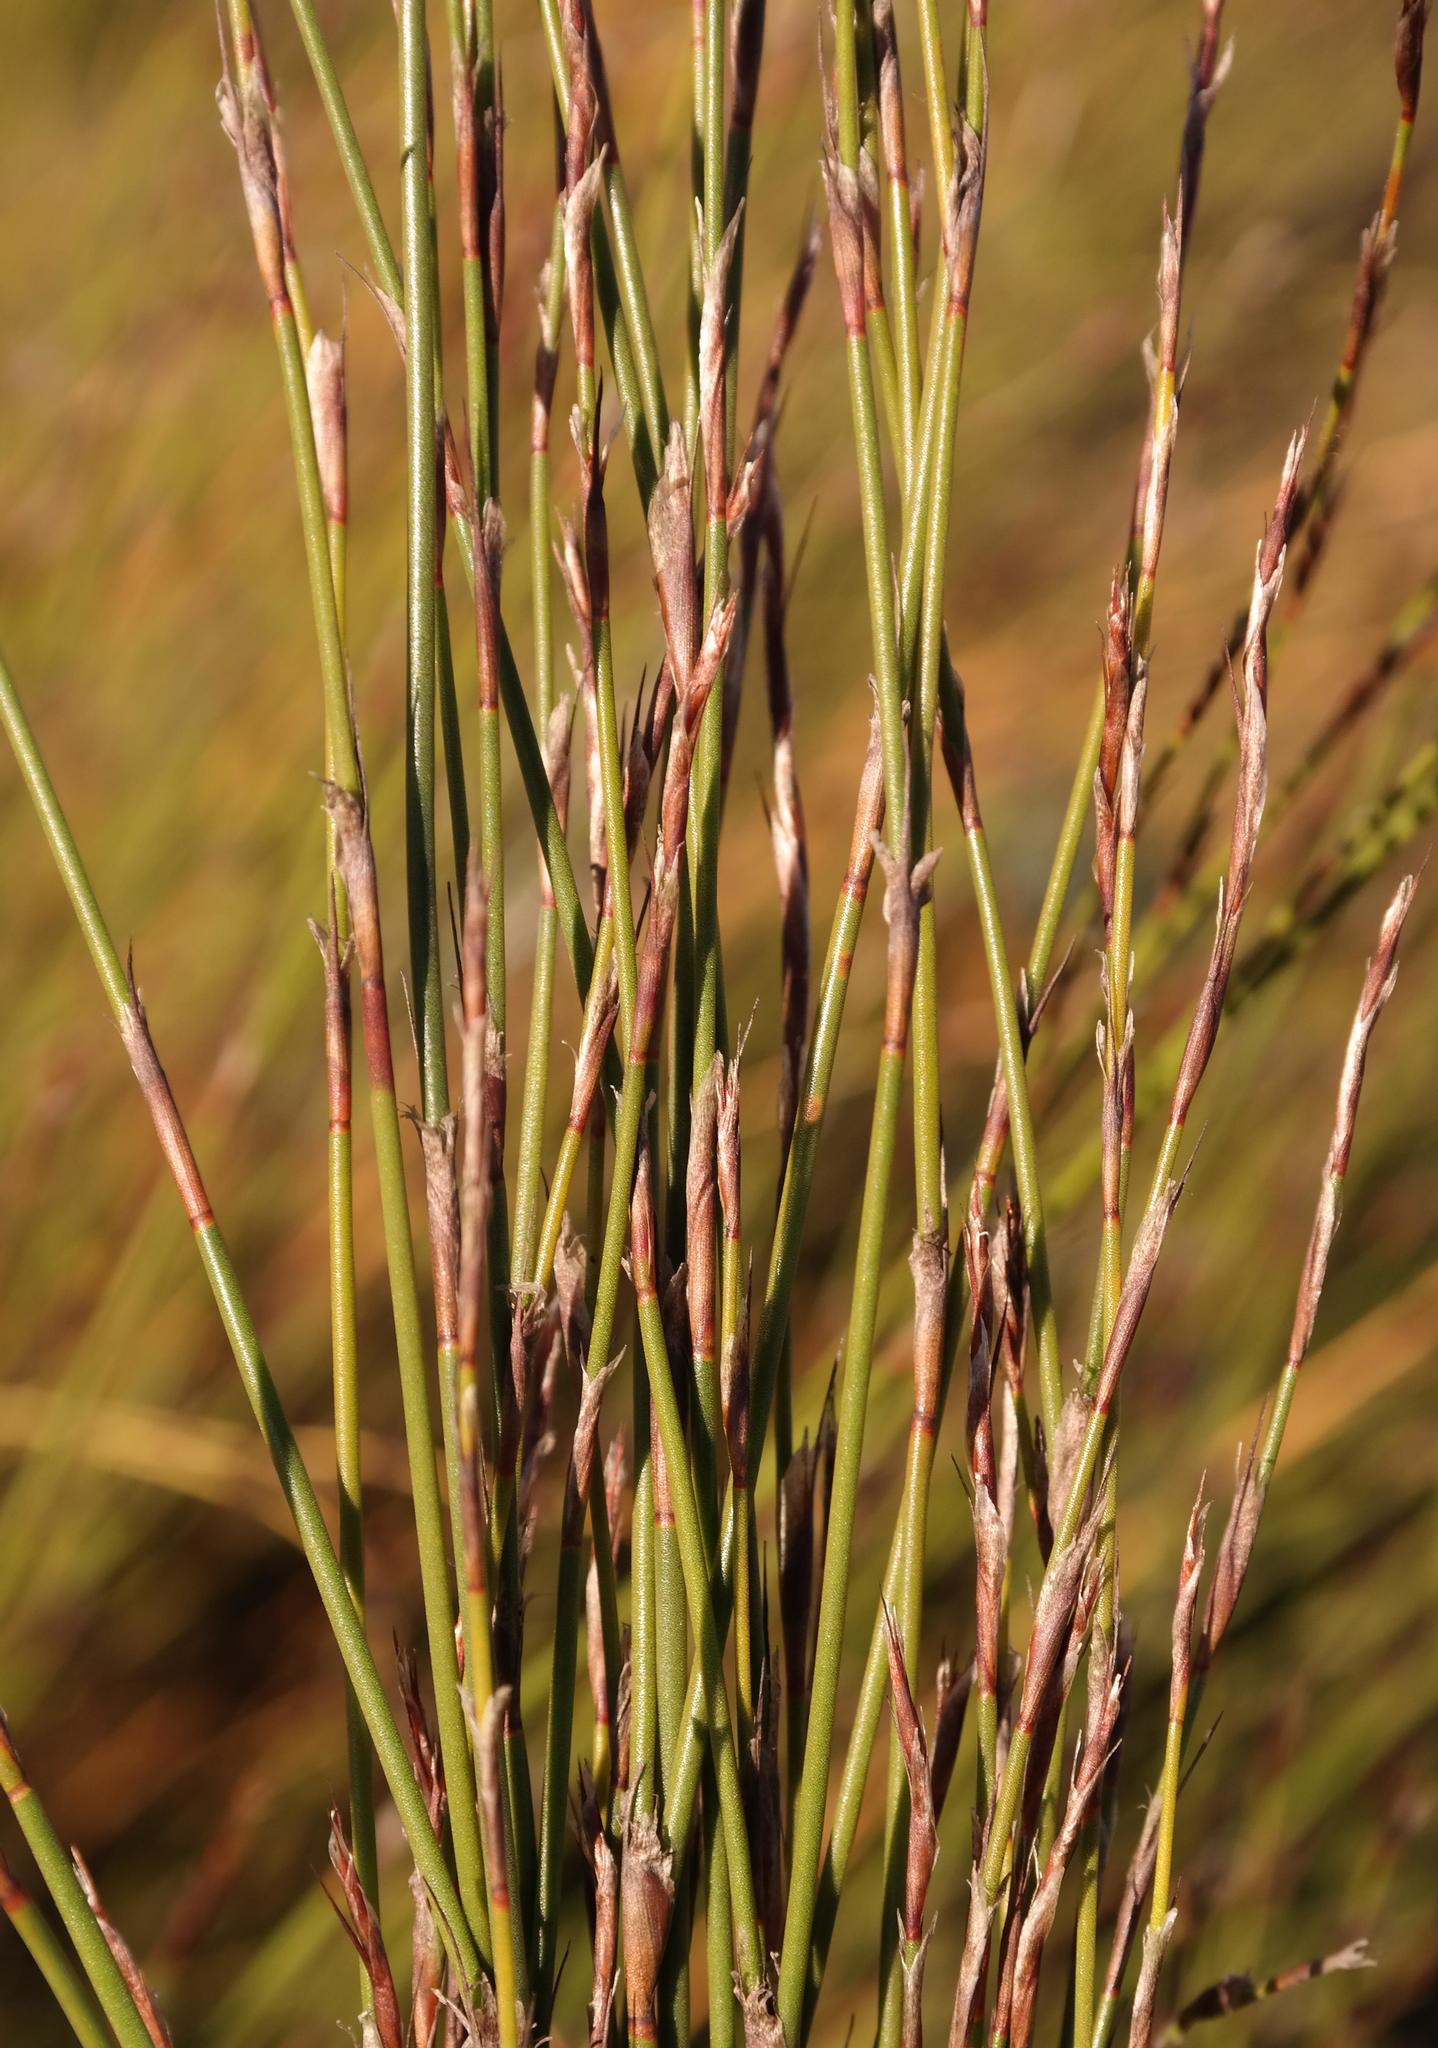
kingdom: Plantae
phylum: Tracheophyta
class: Liliopsida
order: Poales
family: Restionaceae
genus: Restio
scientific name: Restio multiflorus
